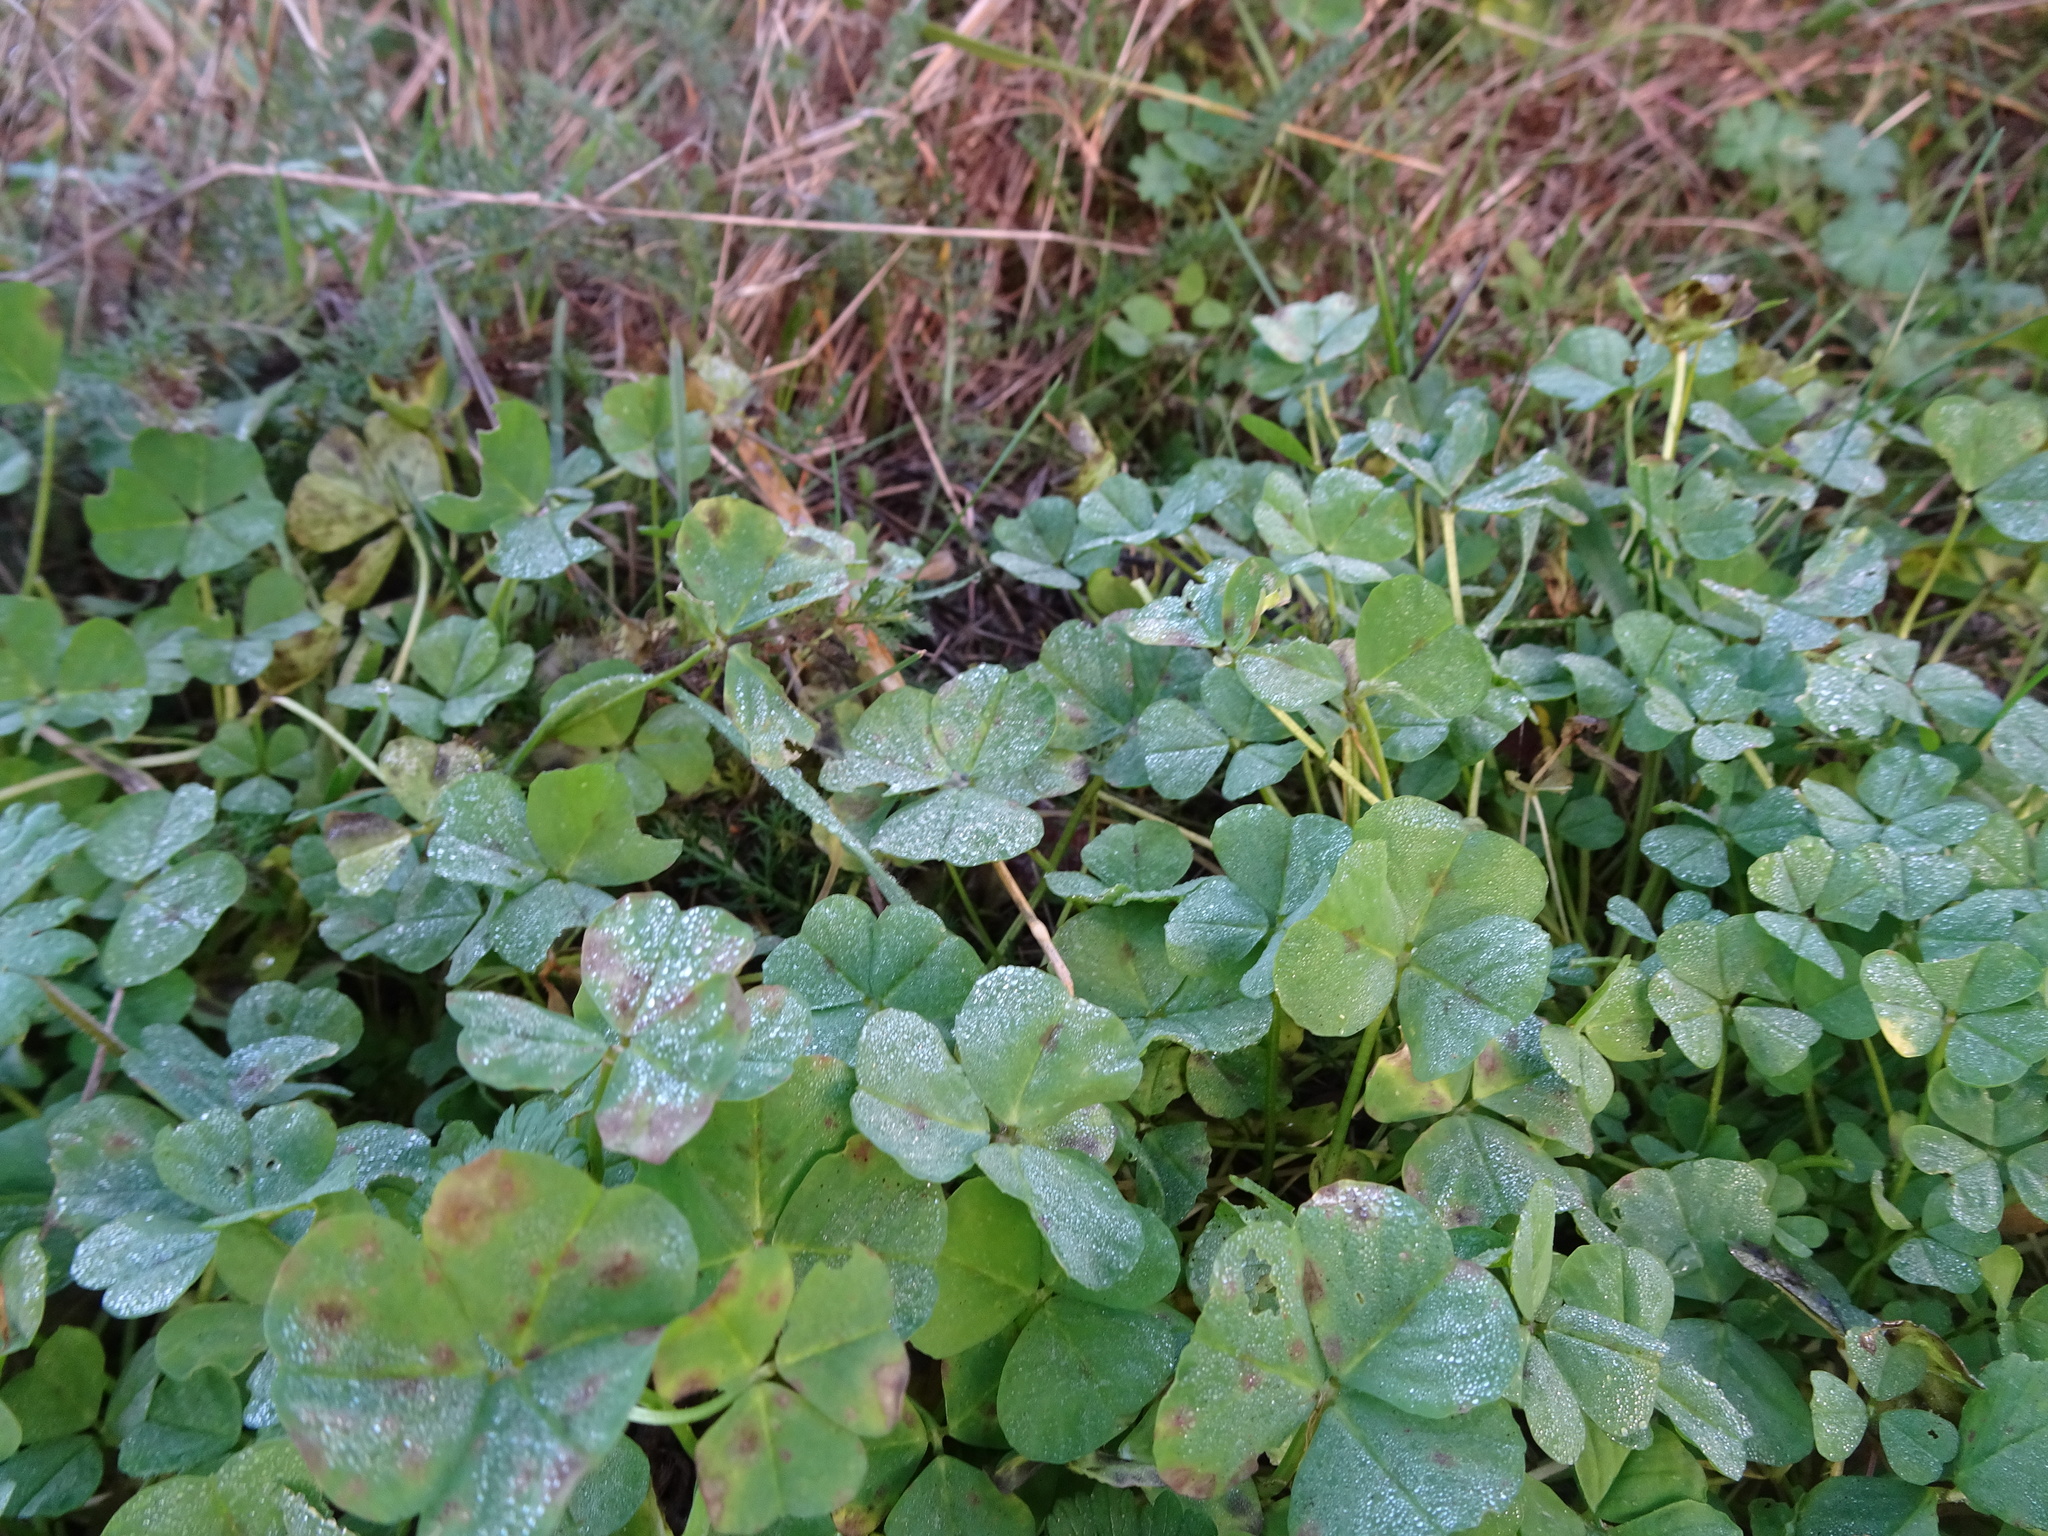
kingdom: Plantae
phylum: Tracheophyta
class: Magnoliopsida
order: Fabales
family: Fabaceae
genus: Medicago
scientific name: Medicago arabica
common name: Spotted medick
